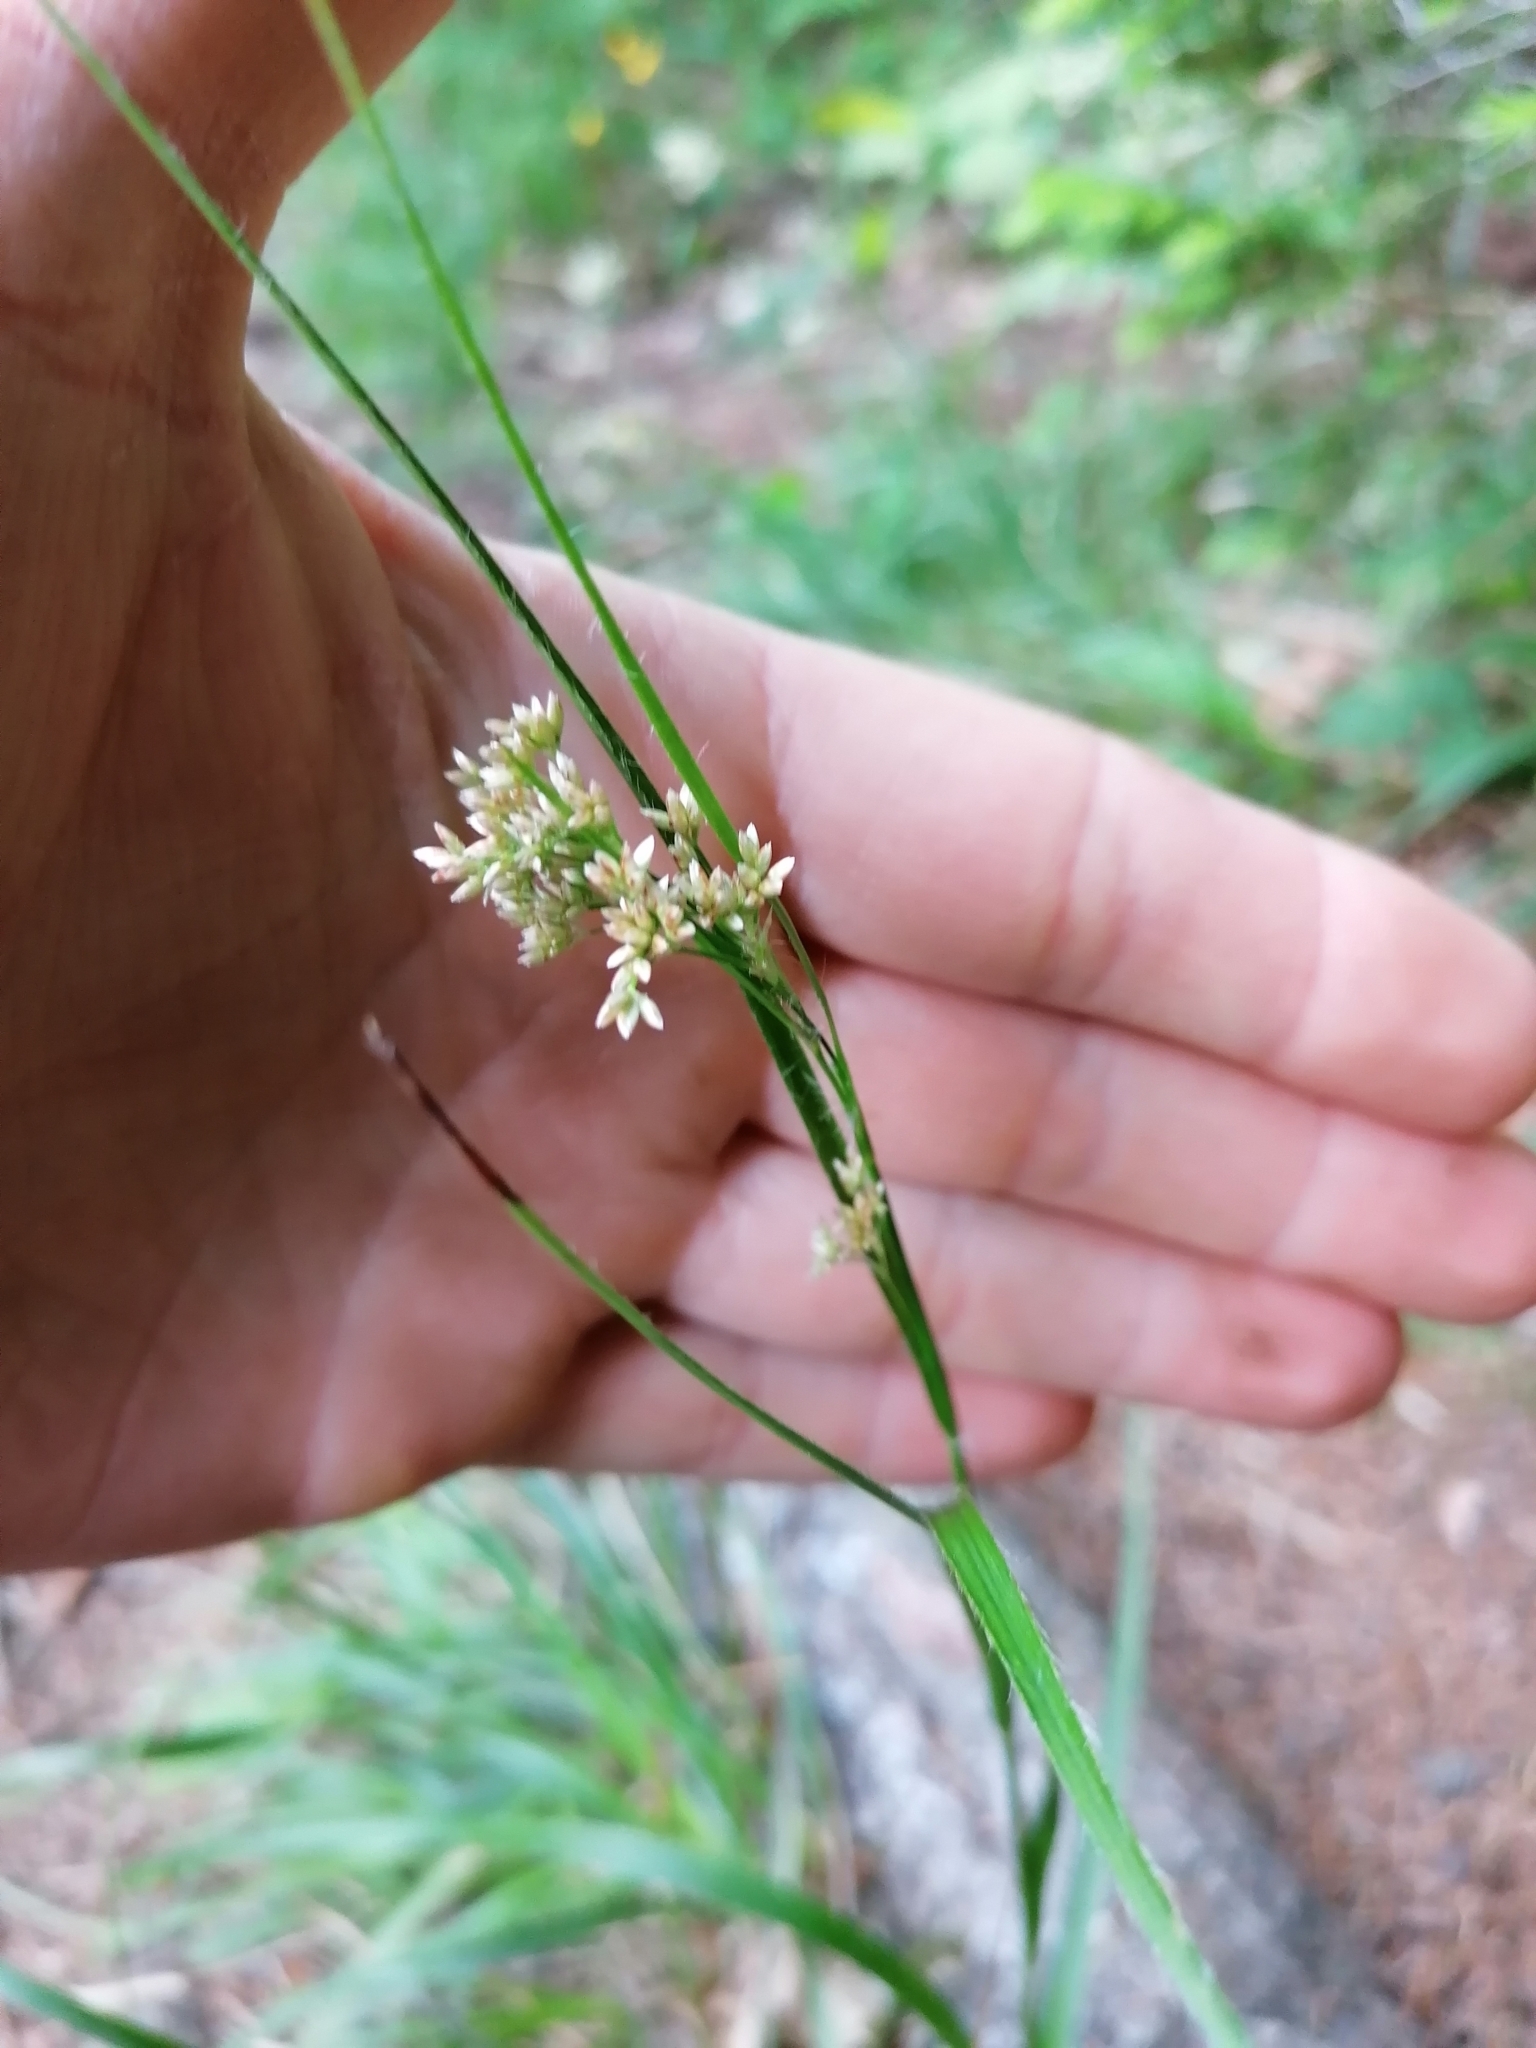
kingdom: Plantae
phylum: Tracheophyta
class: Liliopsida
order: Poales
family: Juncaceae
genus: Luzula
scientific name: Luzula luzuloides
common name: White wood-rush
